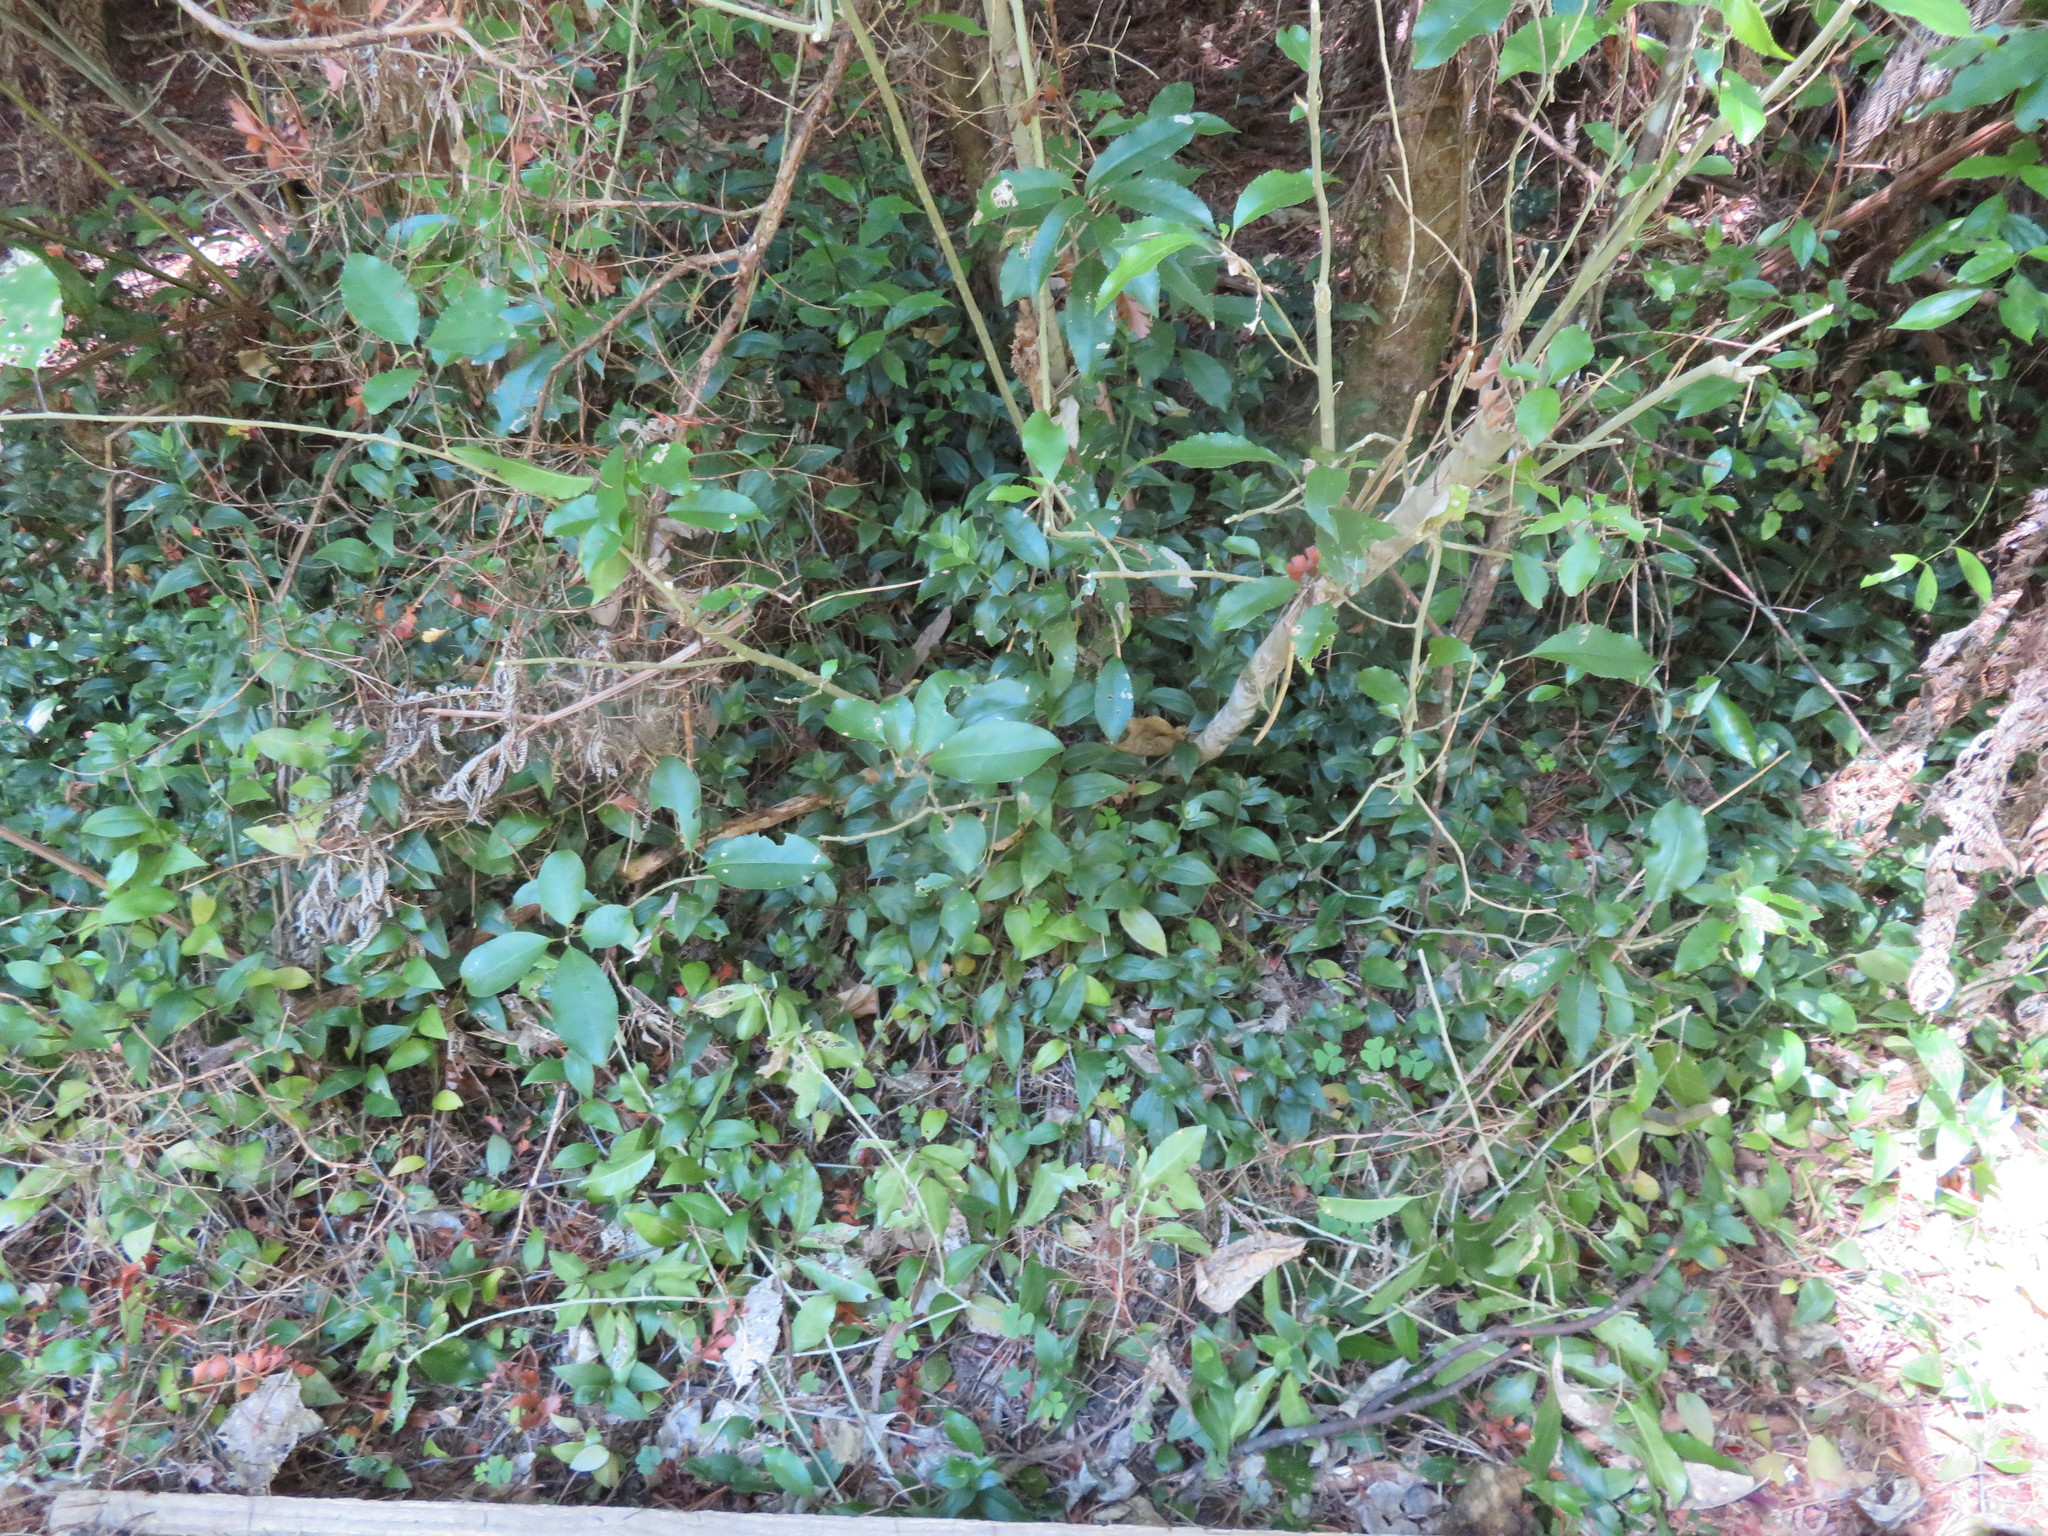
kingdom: Plantae
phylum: Tracheophyta
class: Liliopsida
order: Commelinales
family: Commelinaceae
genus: Tradescantia
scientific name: Tradescantia fluminensis
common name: Wandering-jew
